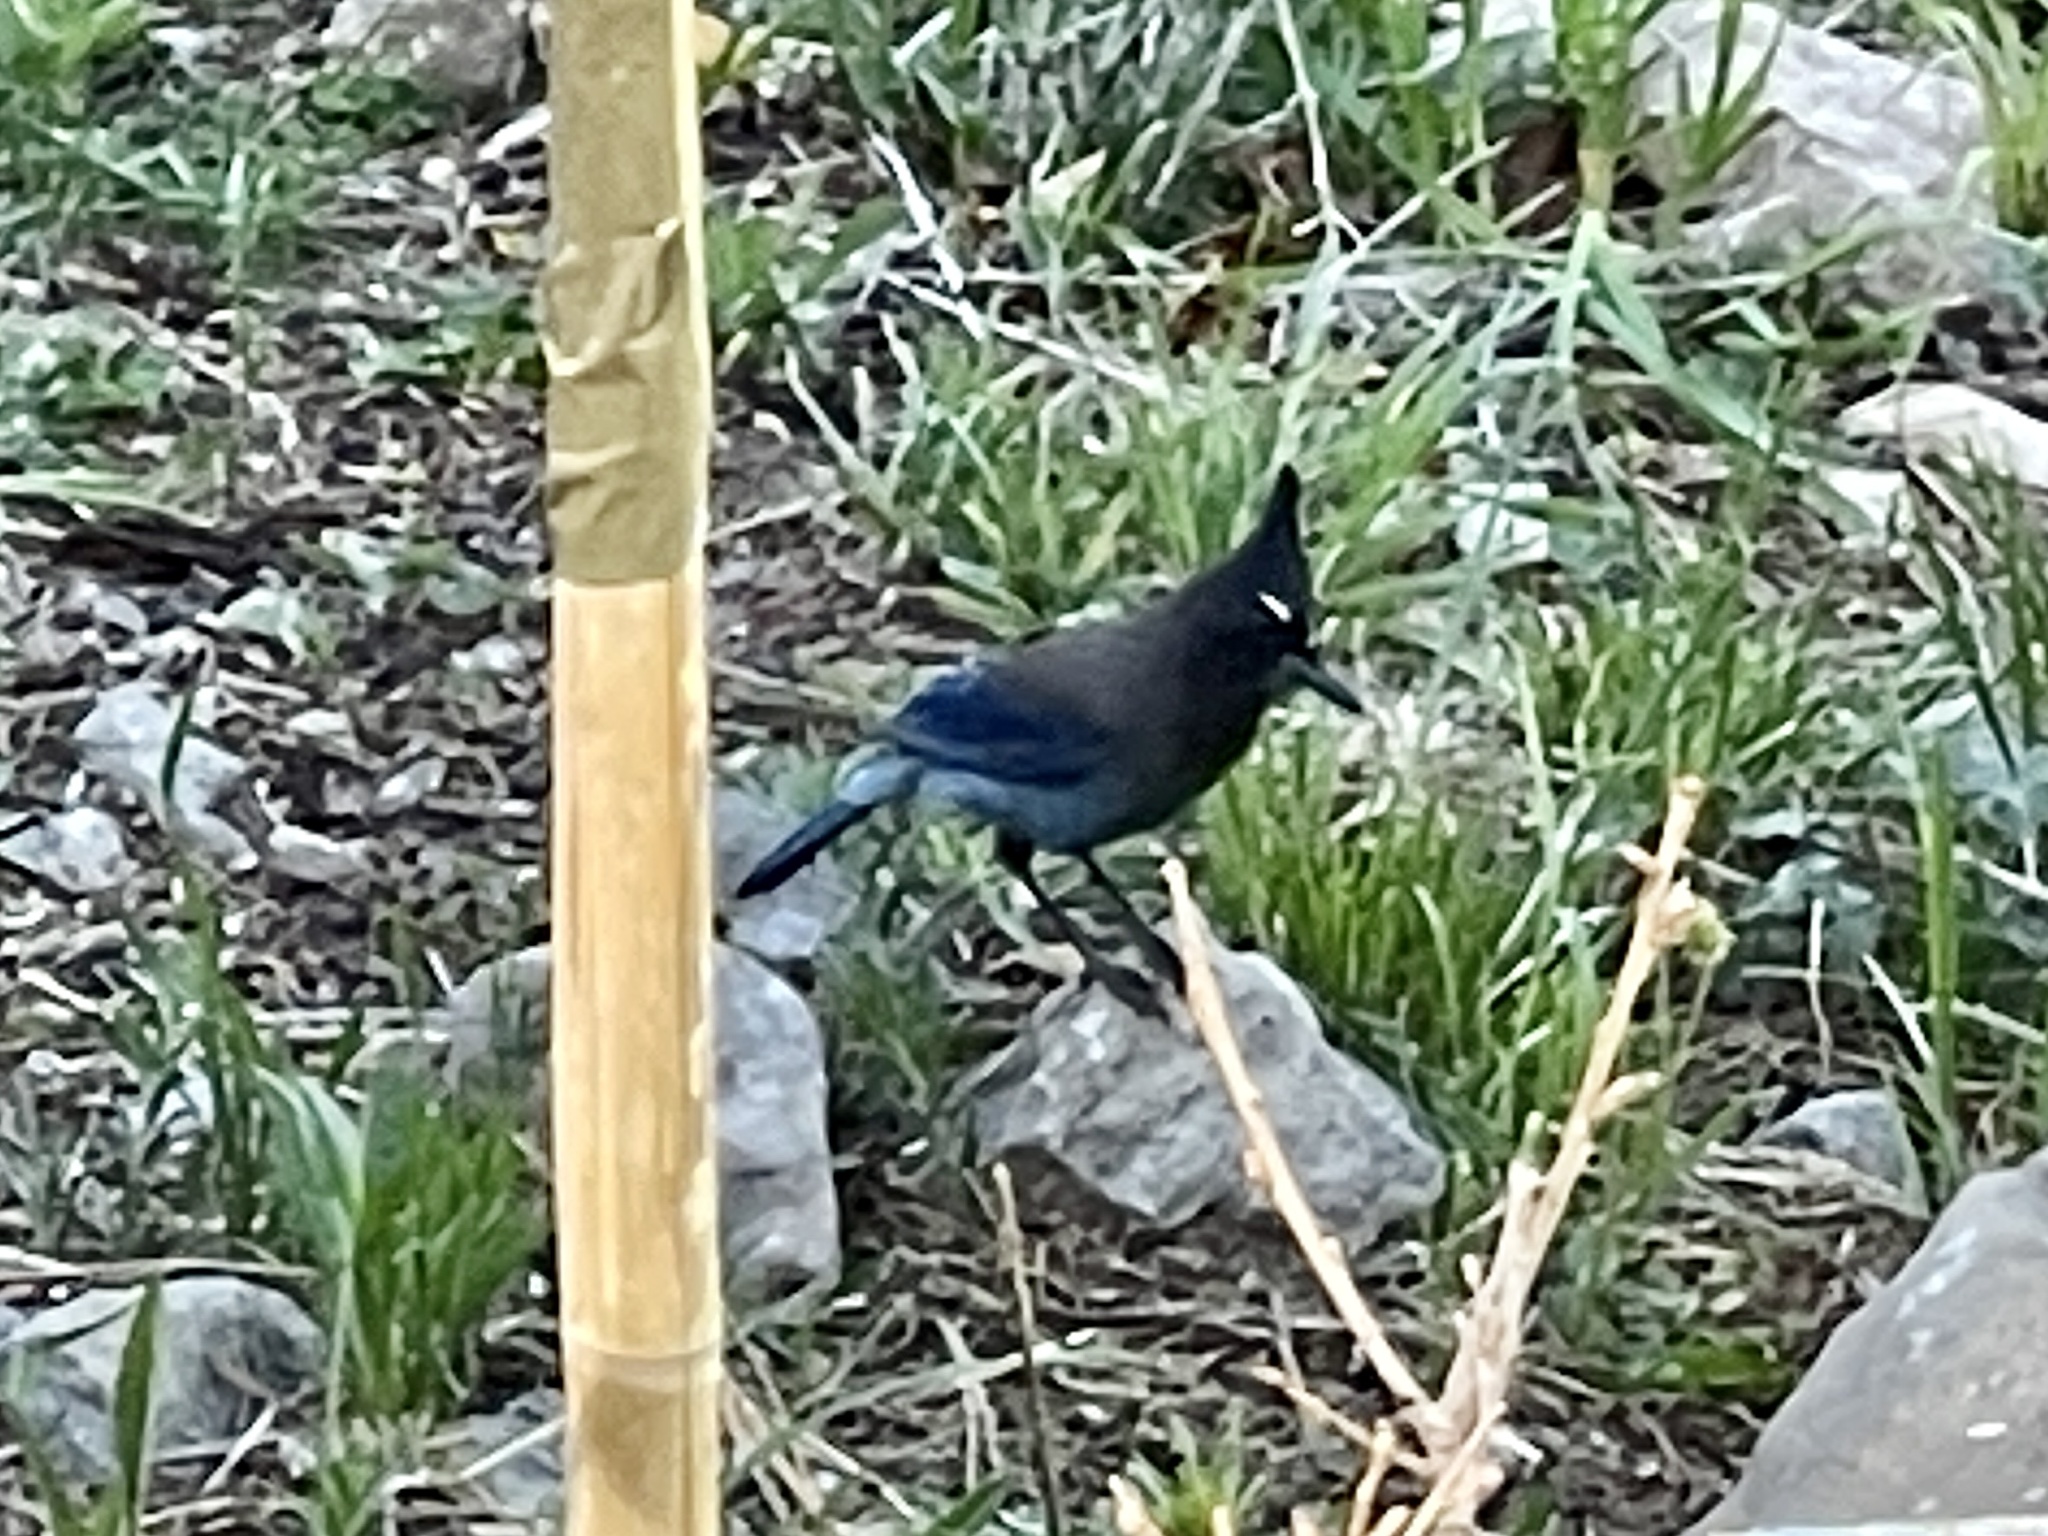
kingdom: Animalia
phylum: Chordata
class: Aves
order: Passeriformes
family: Corvidae
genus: Cyanocitta
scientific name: Cyanocitta stelleri
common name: Steller's jay
